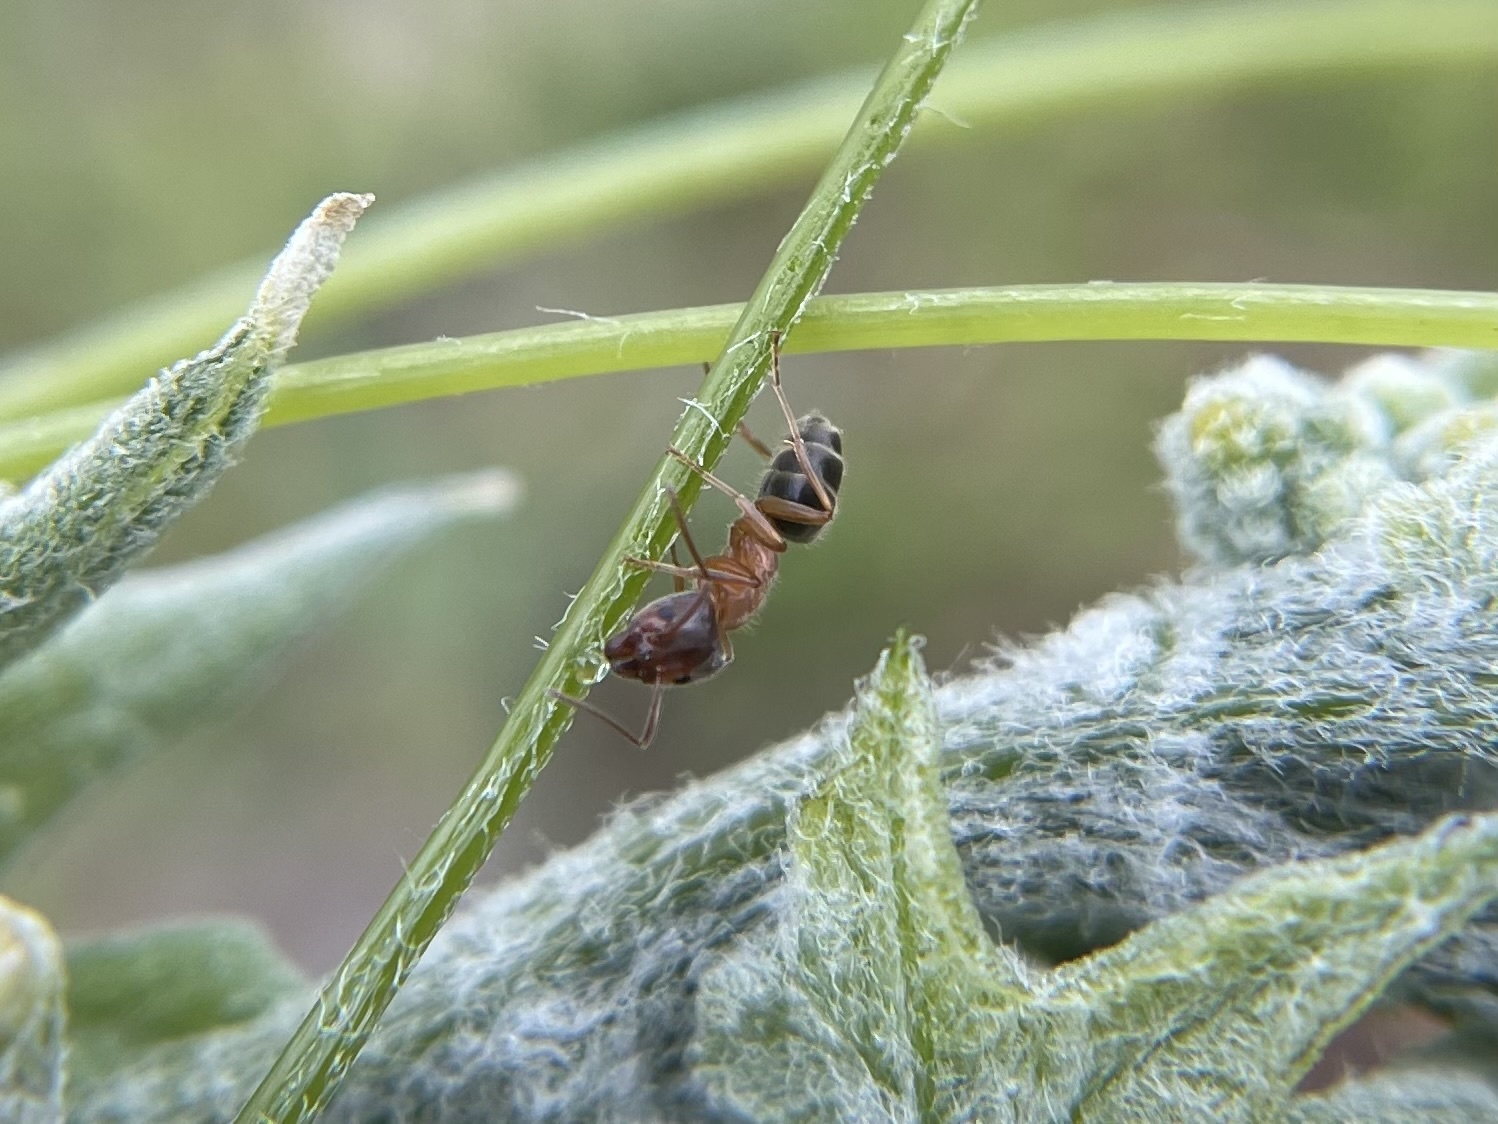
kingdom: Animalia
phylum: Arthropoda
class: Insecta
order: Hymenoptera
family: Formicidae
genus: Liometopum
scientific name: Liometopum occidentale
